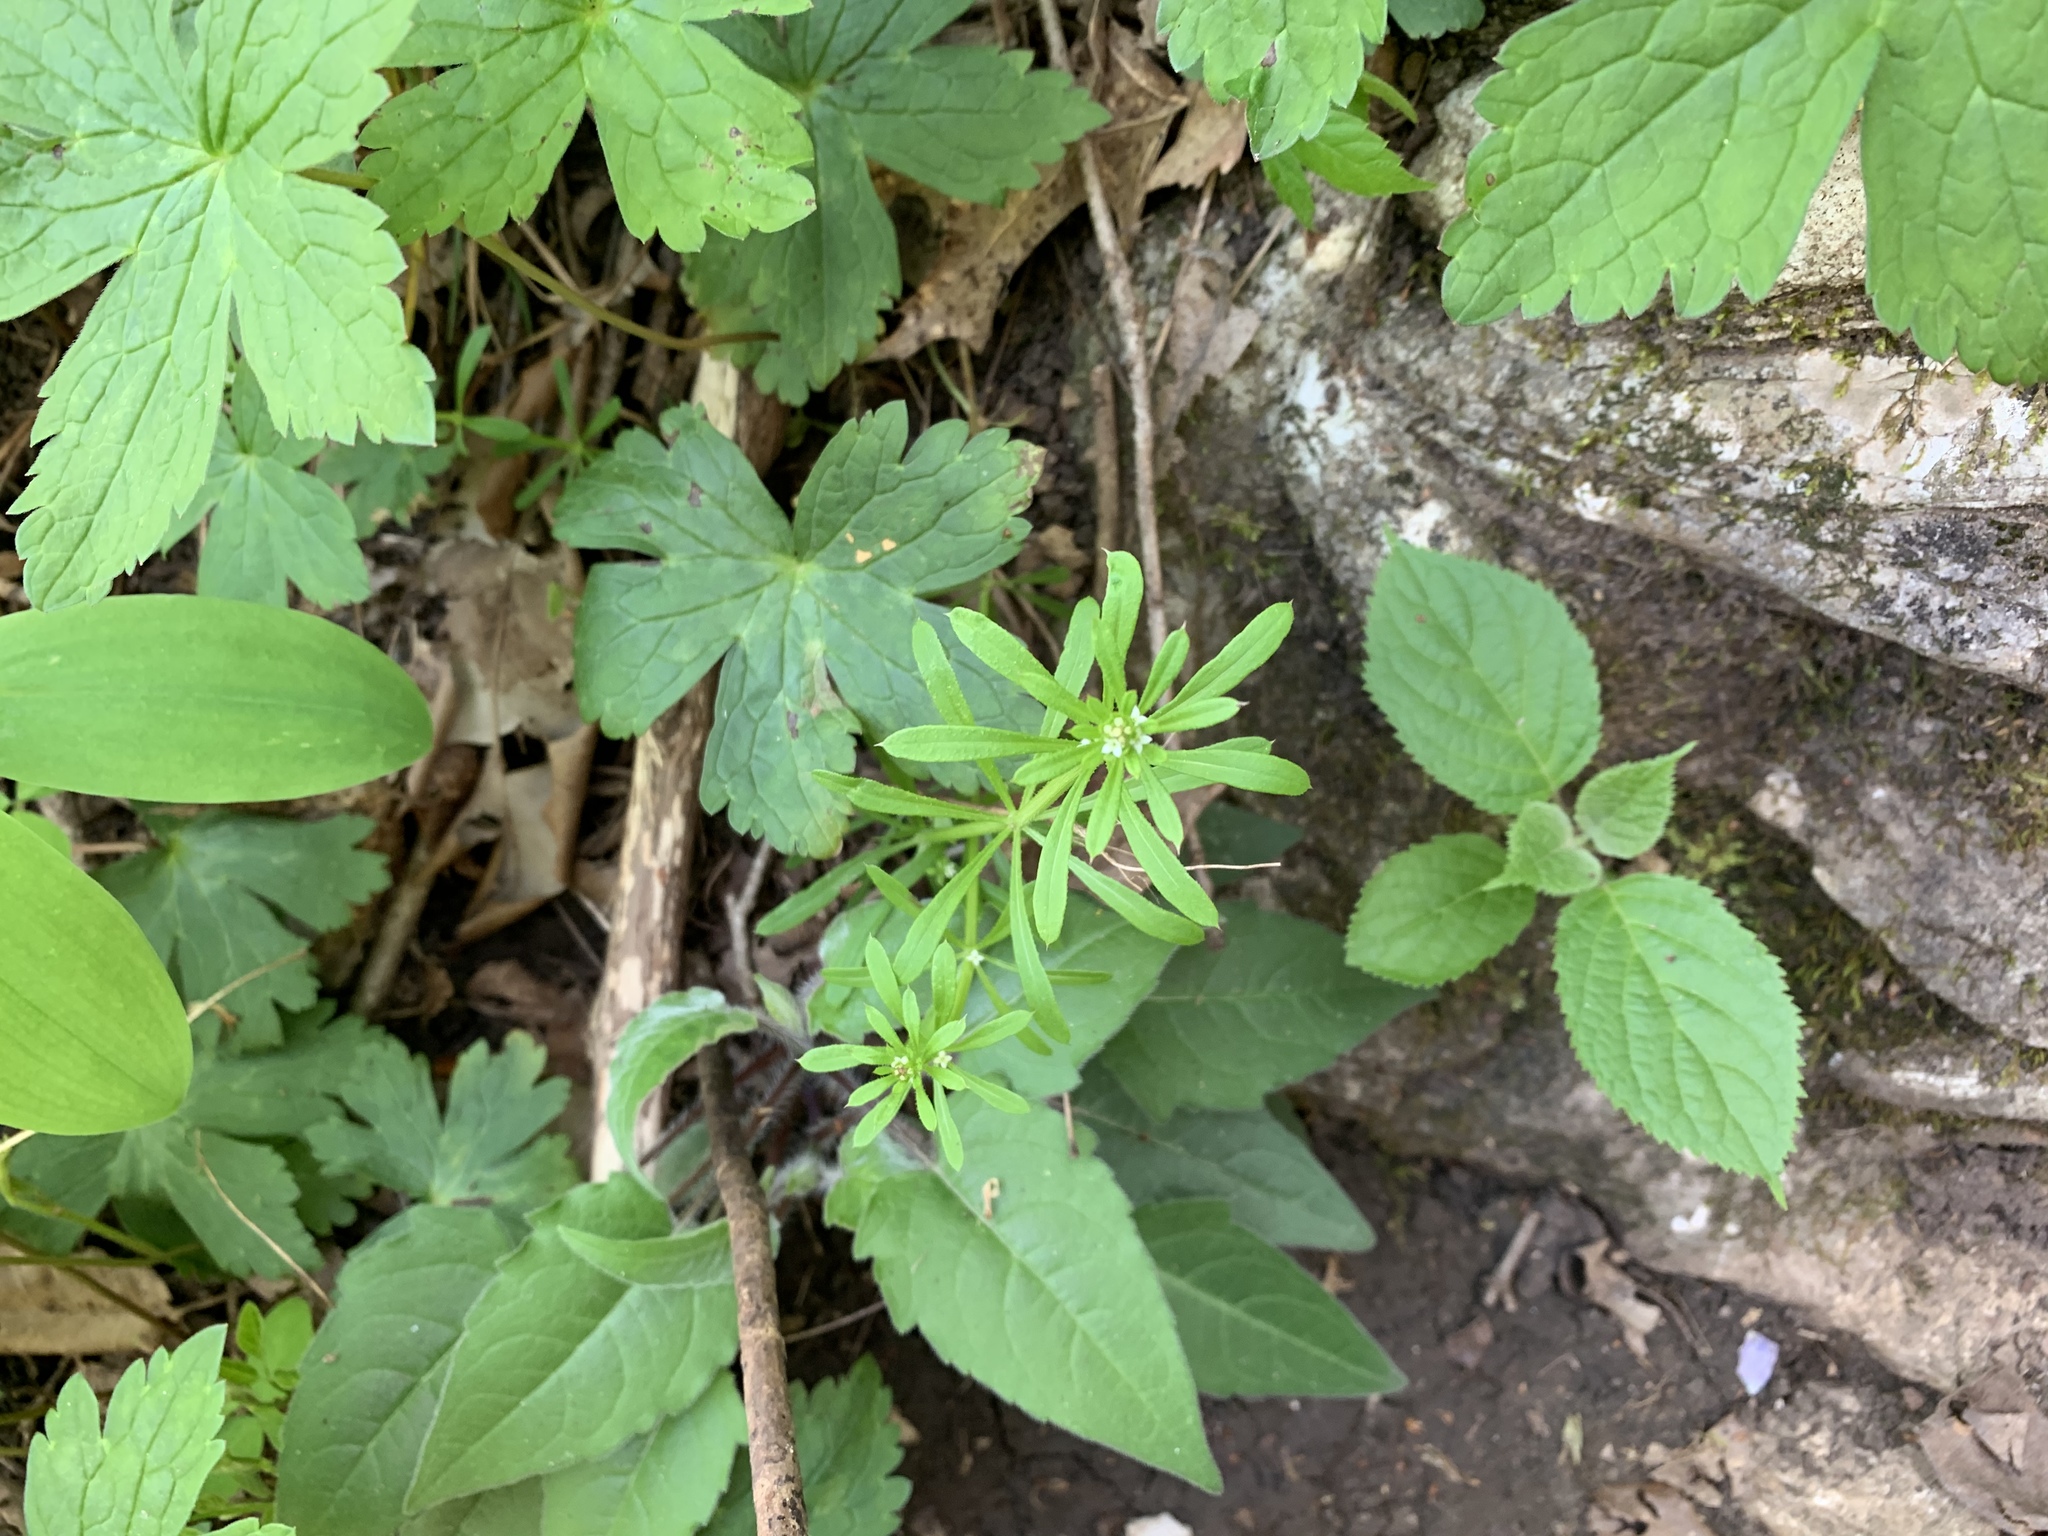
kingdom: Plantae
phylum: Tracheophyta
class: Magnoliopsida
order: Gentianales
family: Rubiaceae
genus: Galium
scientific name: Galium aparine
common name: Cleavers
